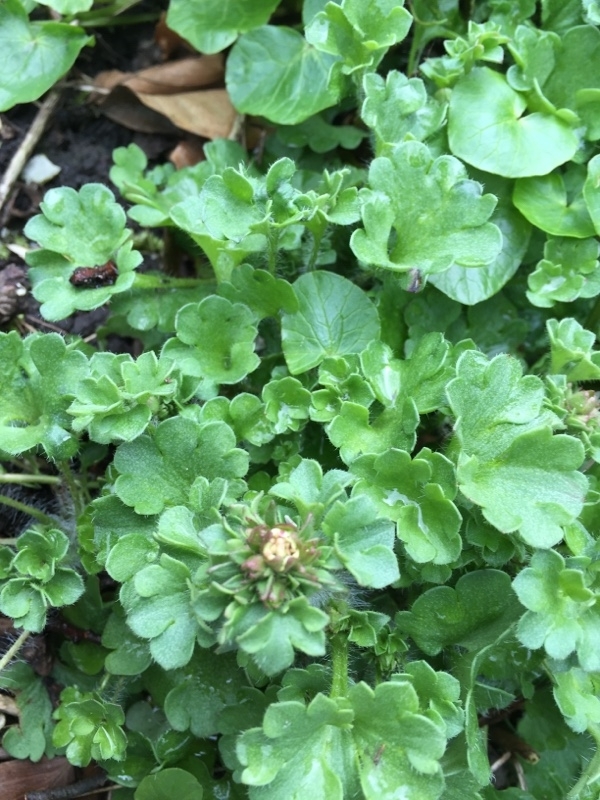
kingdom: Plantae
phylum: Tracheophyta
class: Magnoliopsida
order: Saxifragales
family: Saxifragaceae
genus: Saxifraga
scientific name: Saxifraga granulata
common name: Meadow saxifrage
